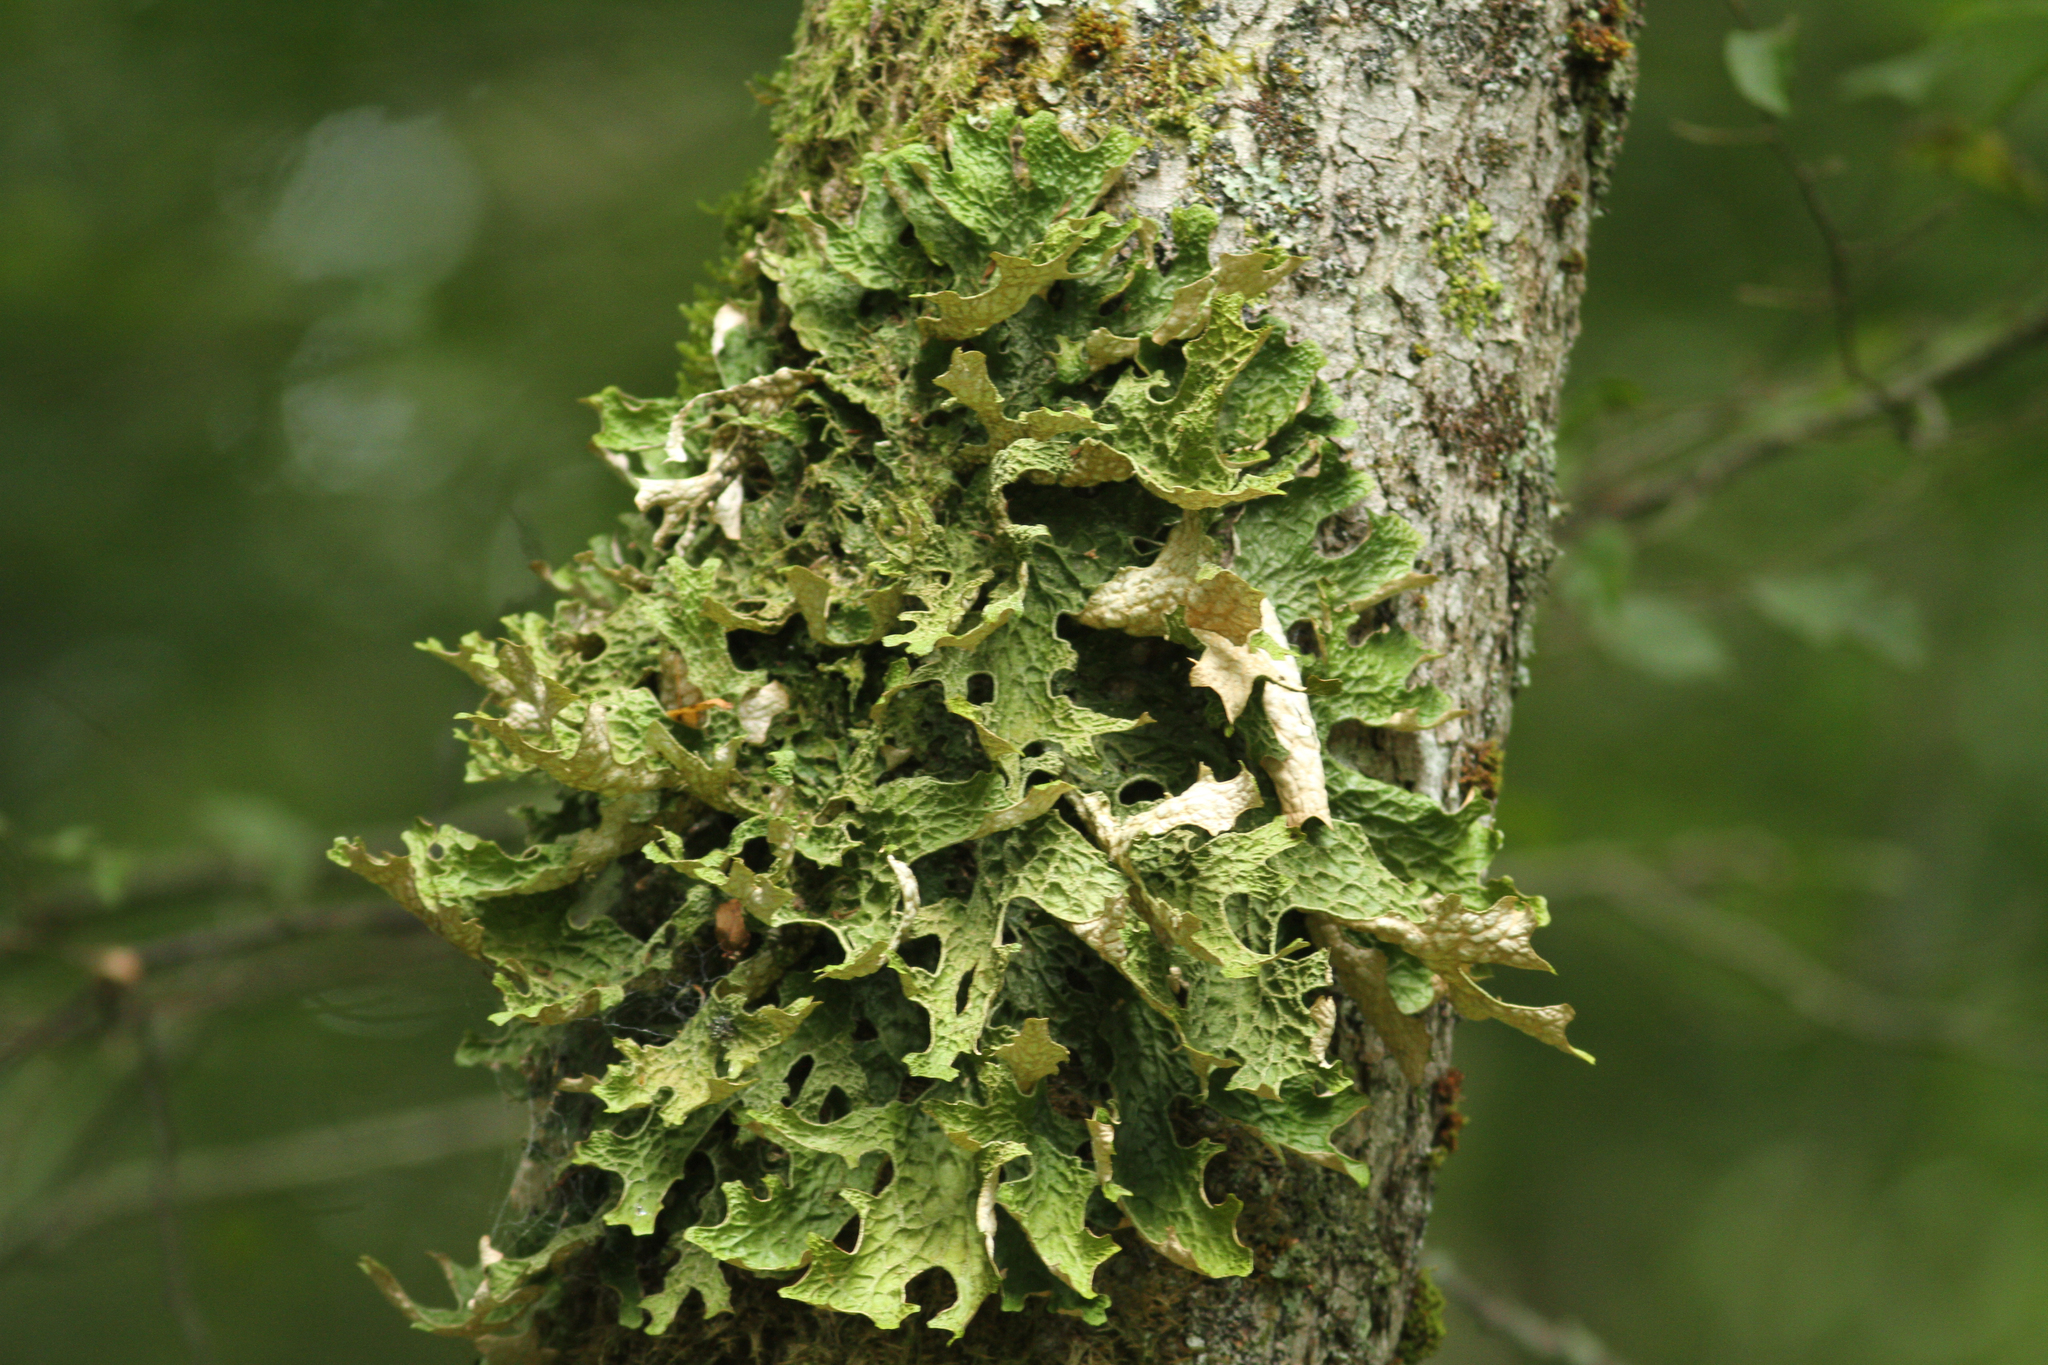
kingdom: Fungi
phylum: Ascomycota
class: Lecanoromycetes
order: Peltigerales
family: Lobariaceae
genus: Lobaria
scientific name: Lobaria pulmonaria
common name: Lungwort
